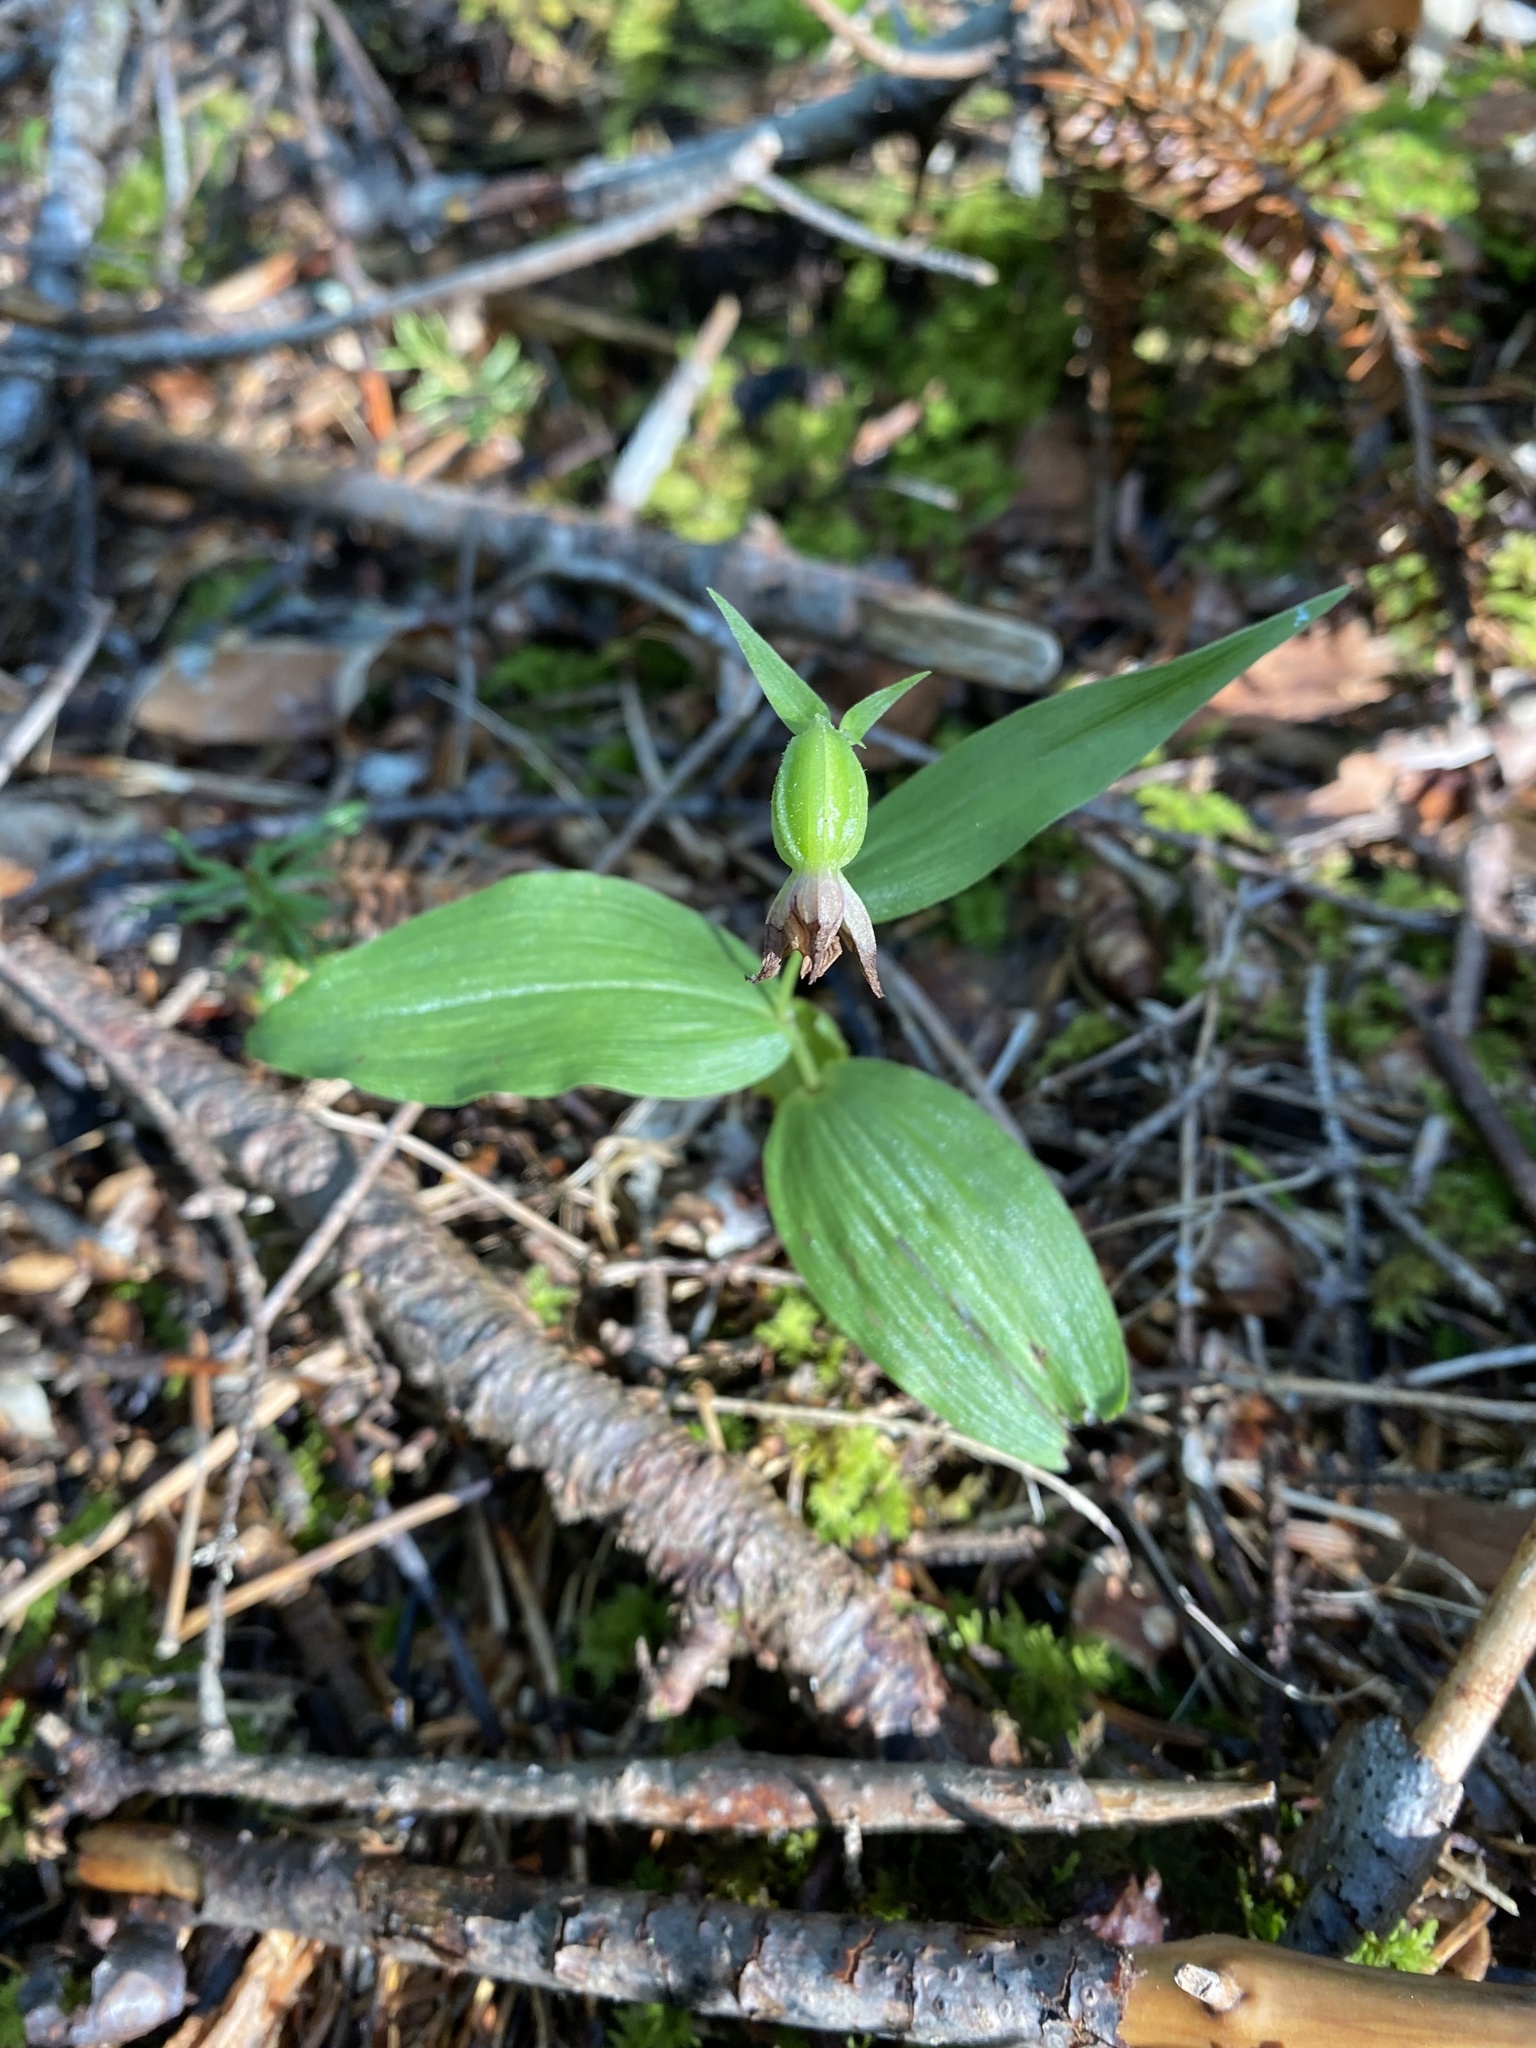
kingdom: Plantae
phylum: Tracheophyta
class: Liliopsida
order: Asparagales
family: Orchidaceae
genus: Epipactis
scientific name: Epipactis helleborine
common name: Broad-leaved helleborine
